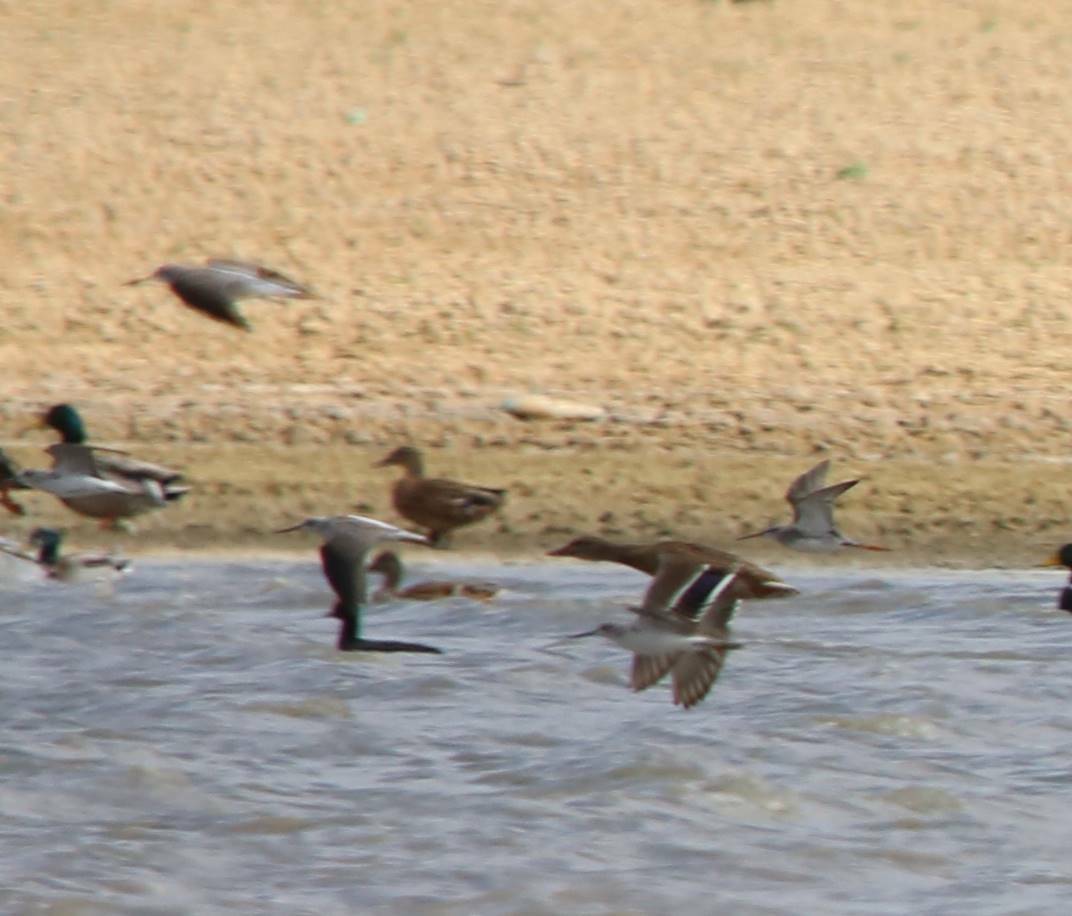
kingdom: Animalia
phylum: Chordata
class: Aves
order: Anseriformes
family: Anatidae
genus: Anas
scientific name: Anas platyrhynchos
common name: Mallard
